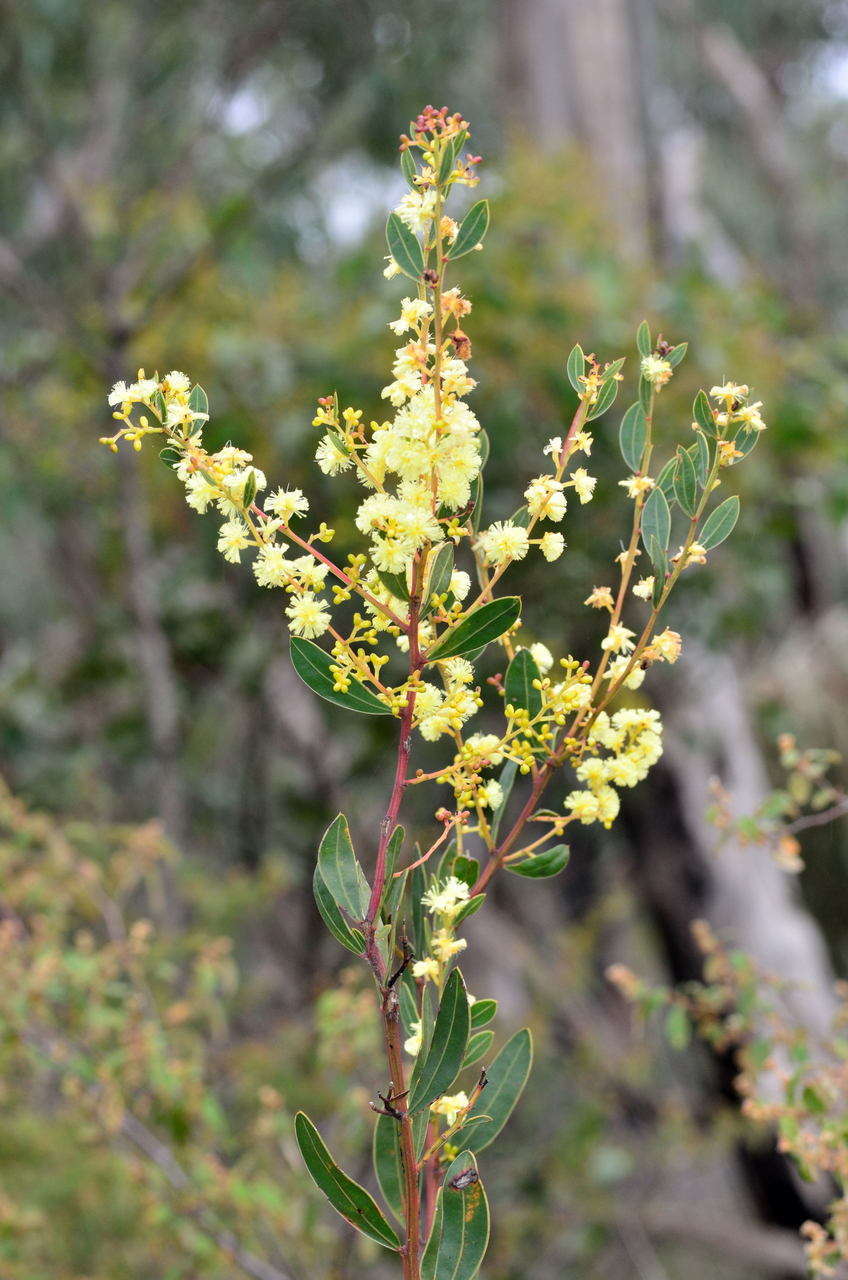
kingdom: Plantae
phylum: Tracheophyta
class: Magnoliopsida
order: Fabales
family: Fabaceae
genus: Acacia
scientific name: Acacia myrtifolia
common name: Myrtle wattle
